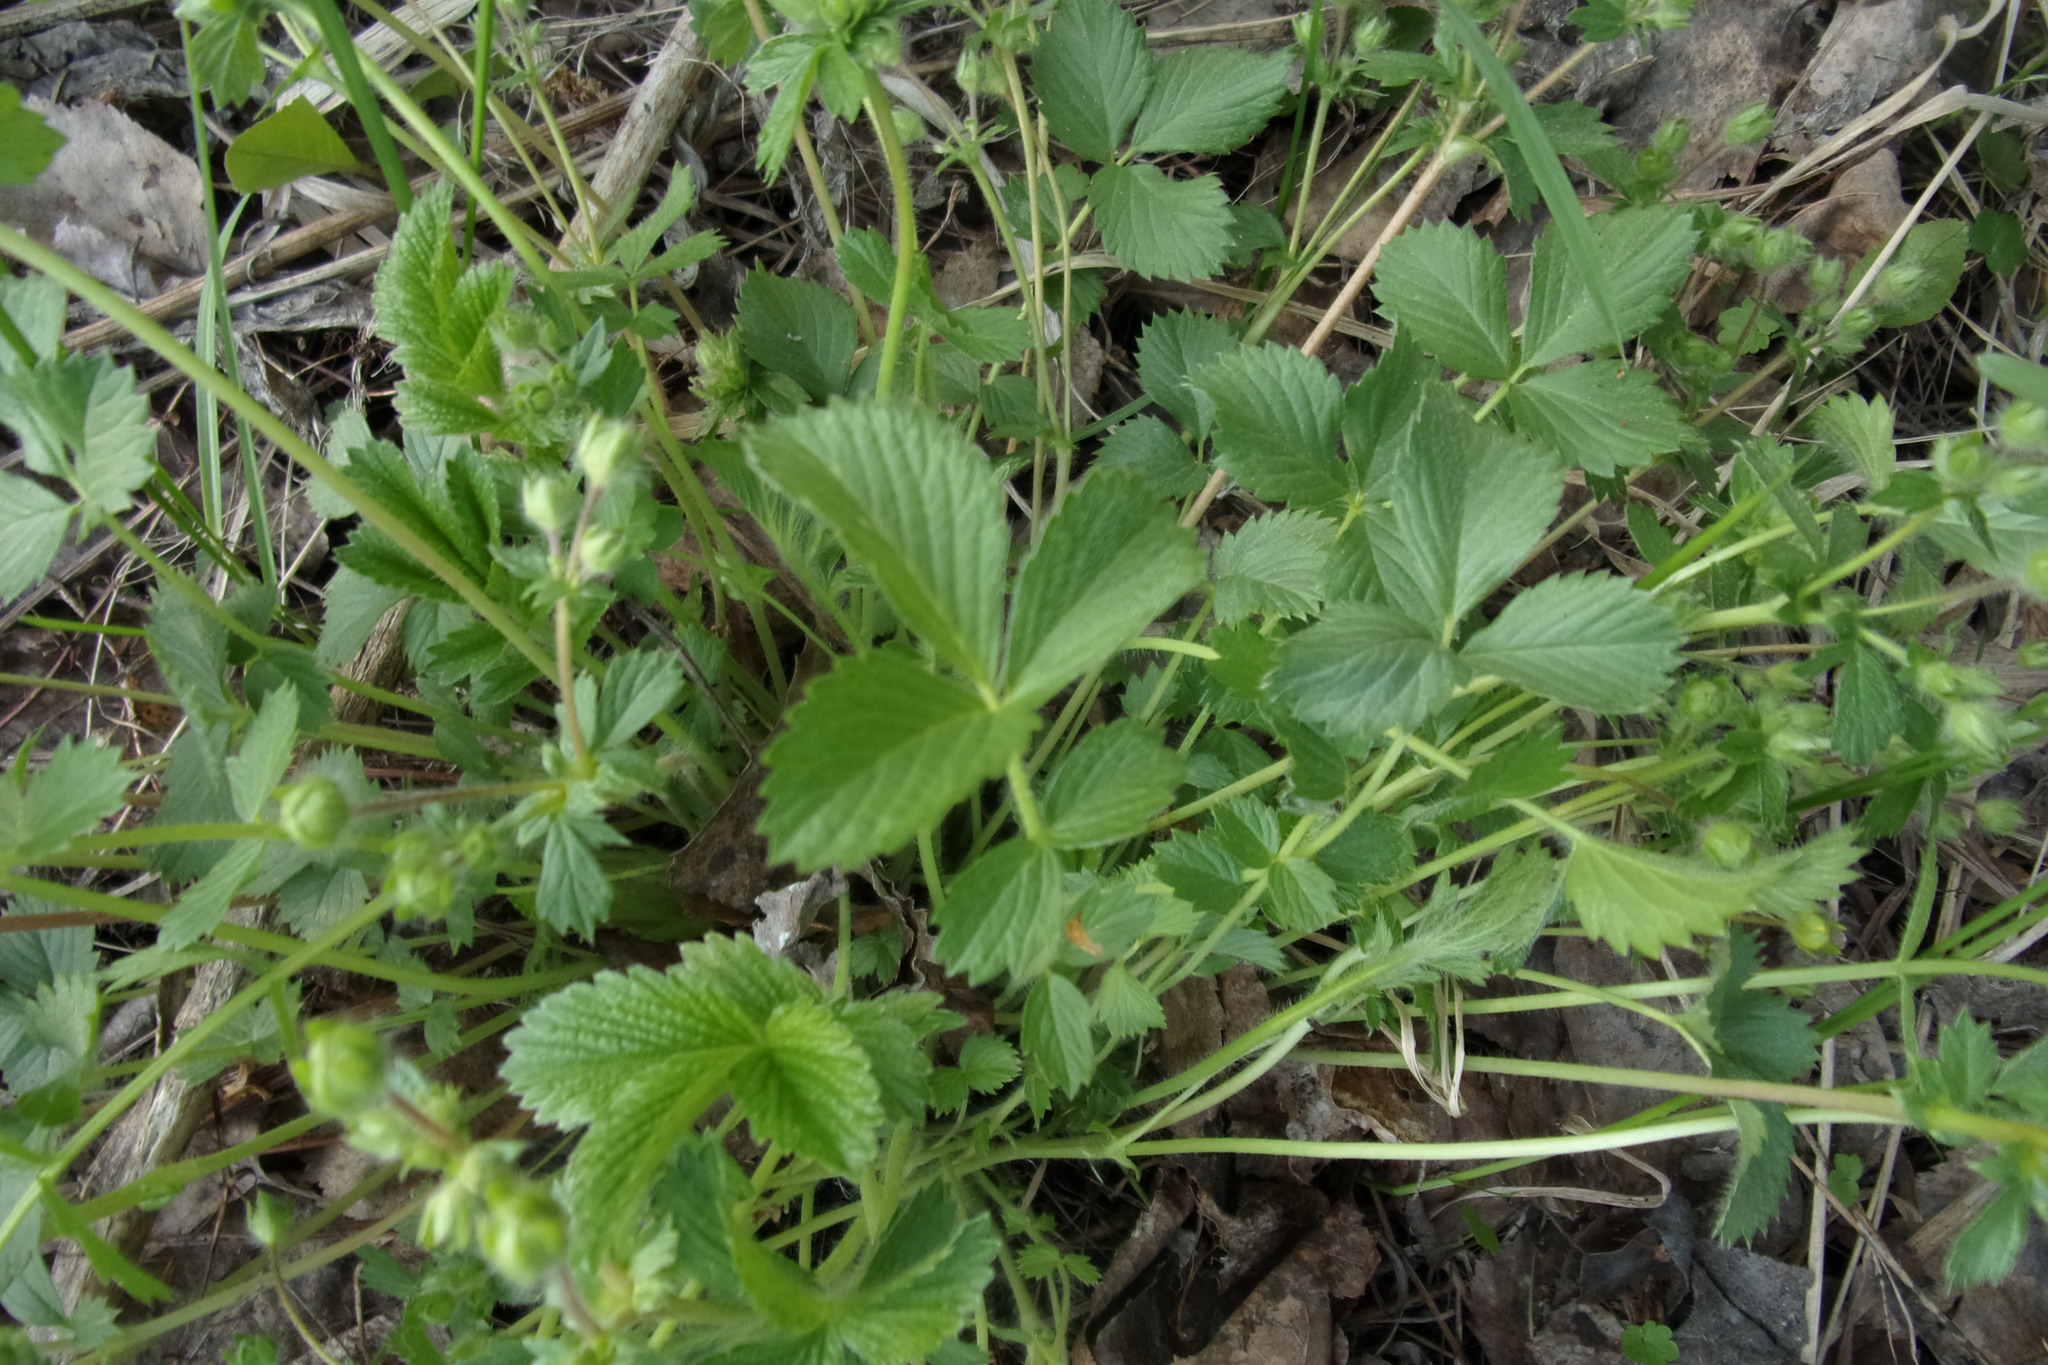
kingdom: Plantae
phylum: Tracheophyta
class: Magnoliopsida
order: Rosales
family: Rosaceae
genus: Potentilla
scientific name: Potentilla fragarioides
